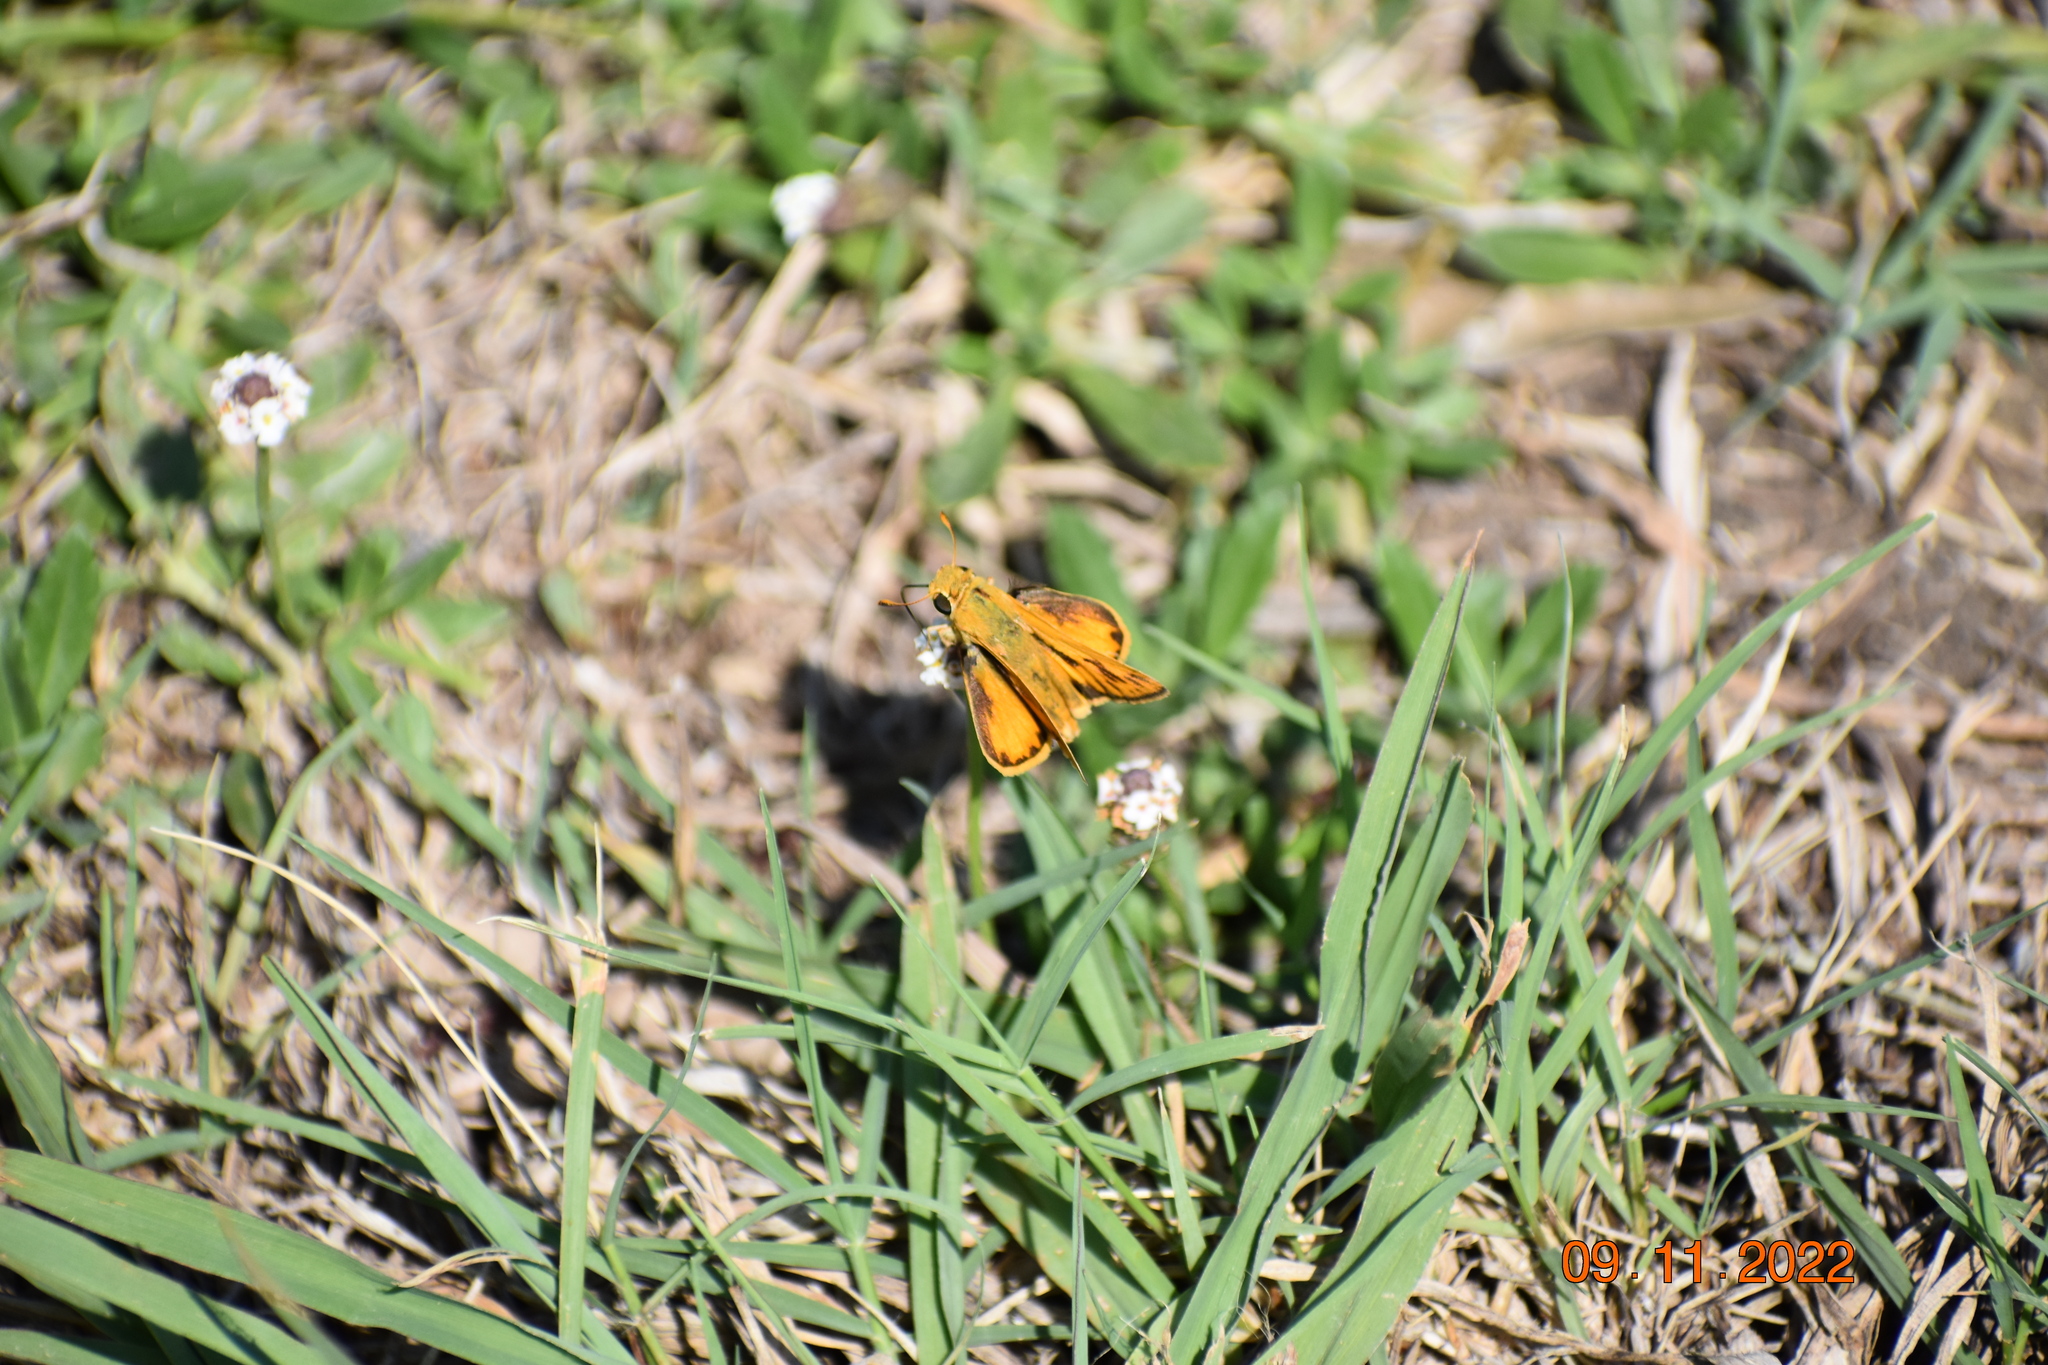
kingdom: Animalia
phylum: Arthropoda
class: Insecta
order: Lepidoptera
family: Hesperiidae
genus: Hylephila
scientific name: Hylephila phyleus
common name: Fiery skipper
